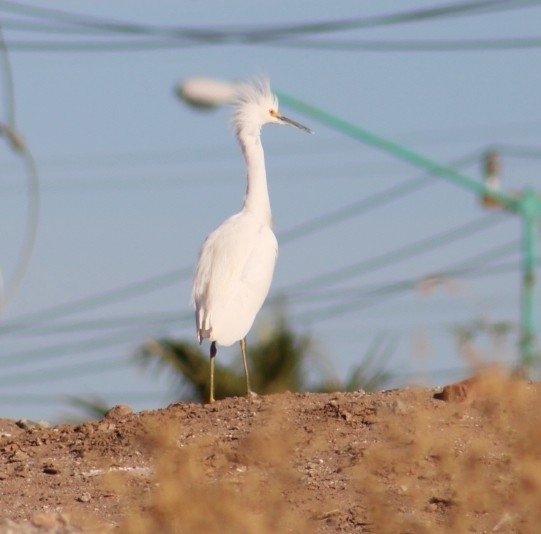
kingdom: Animalia
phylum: Chordata
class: Aves
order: Pelecaniformes
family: Ardeidae
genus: Egretta
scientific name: Egretta thula
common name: Snowy egret
